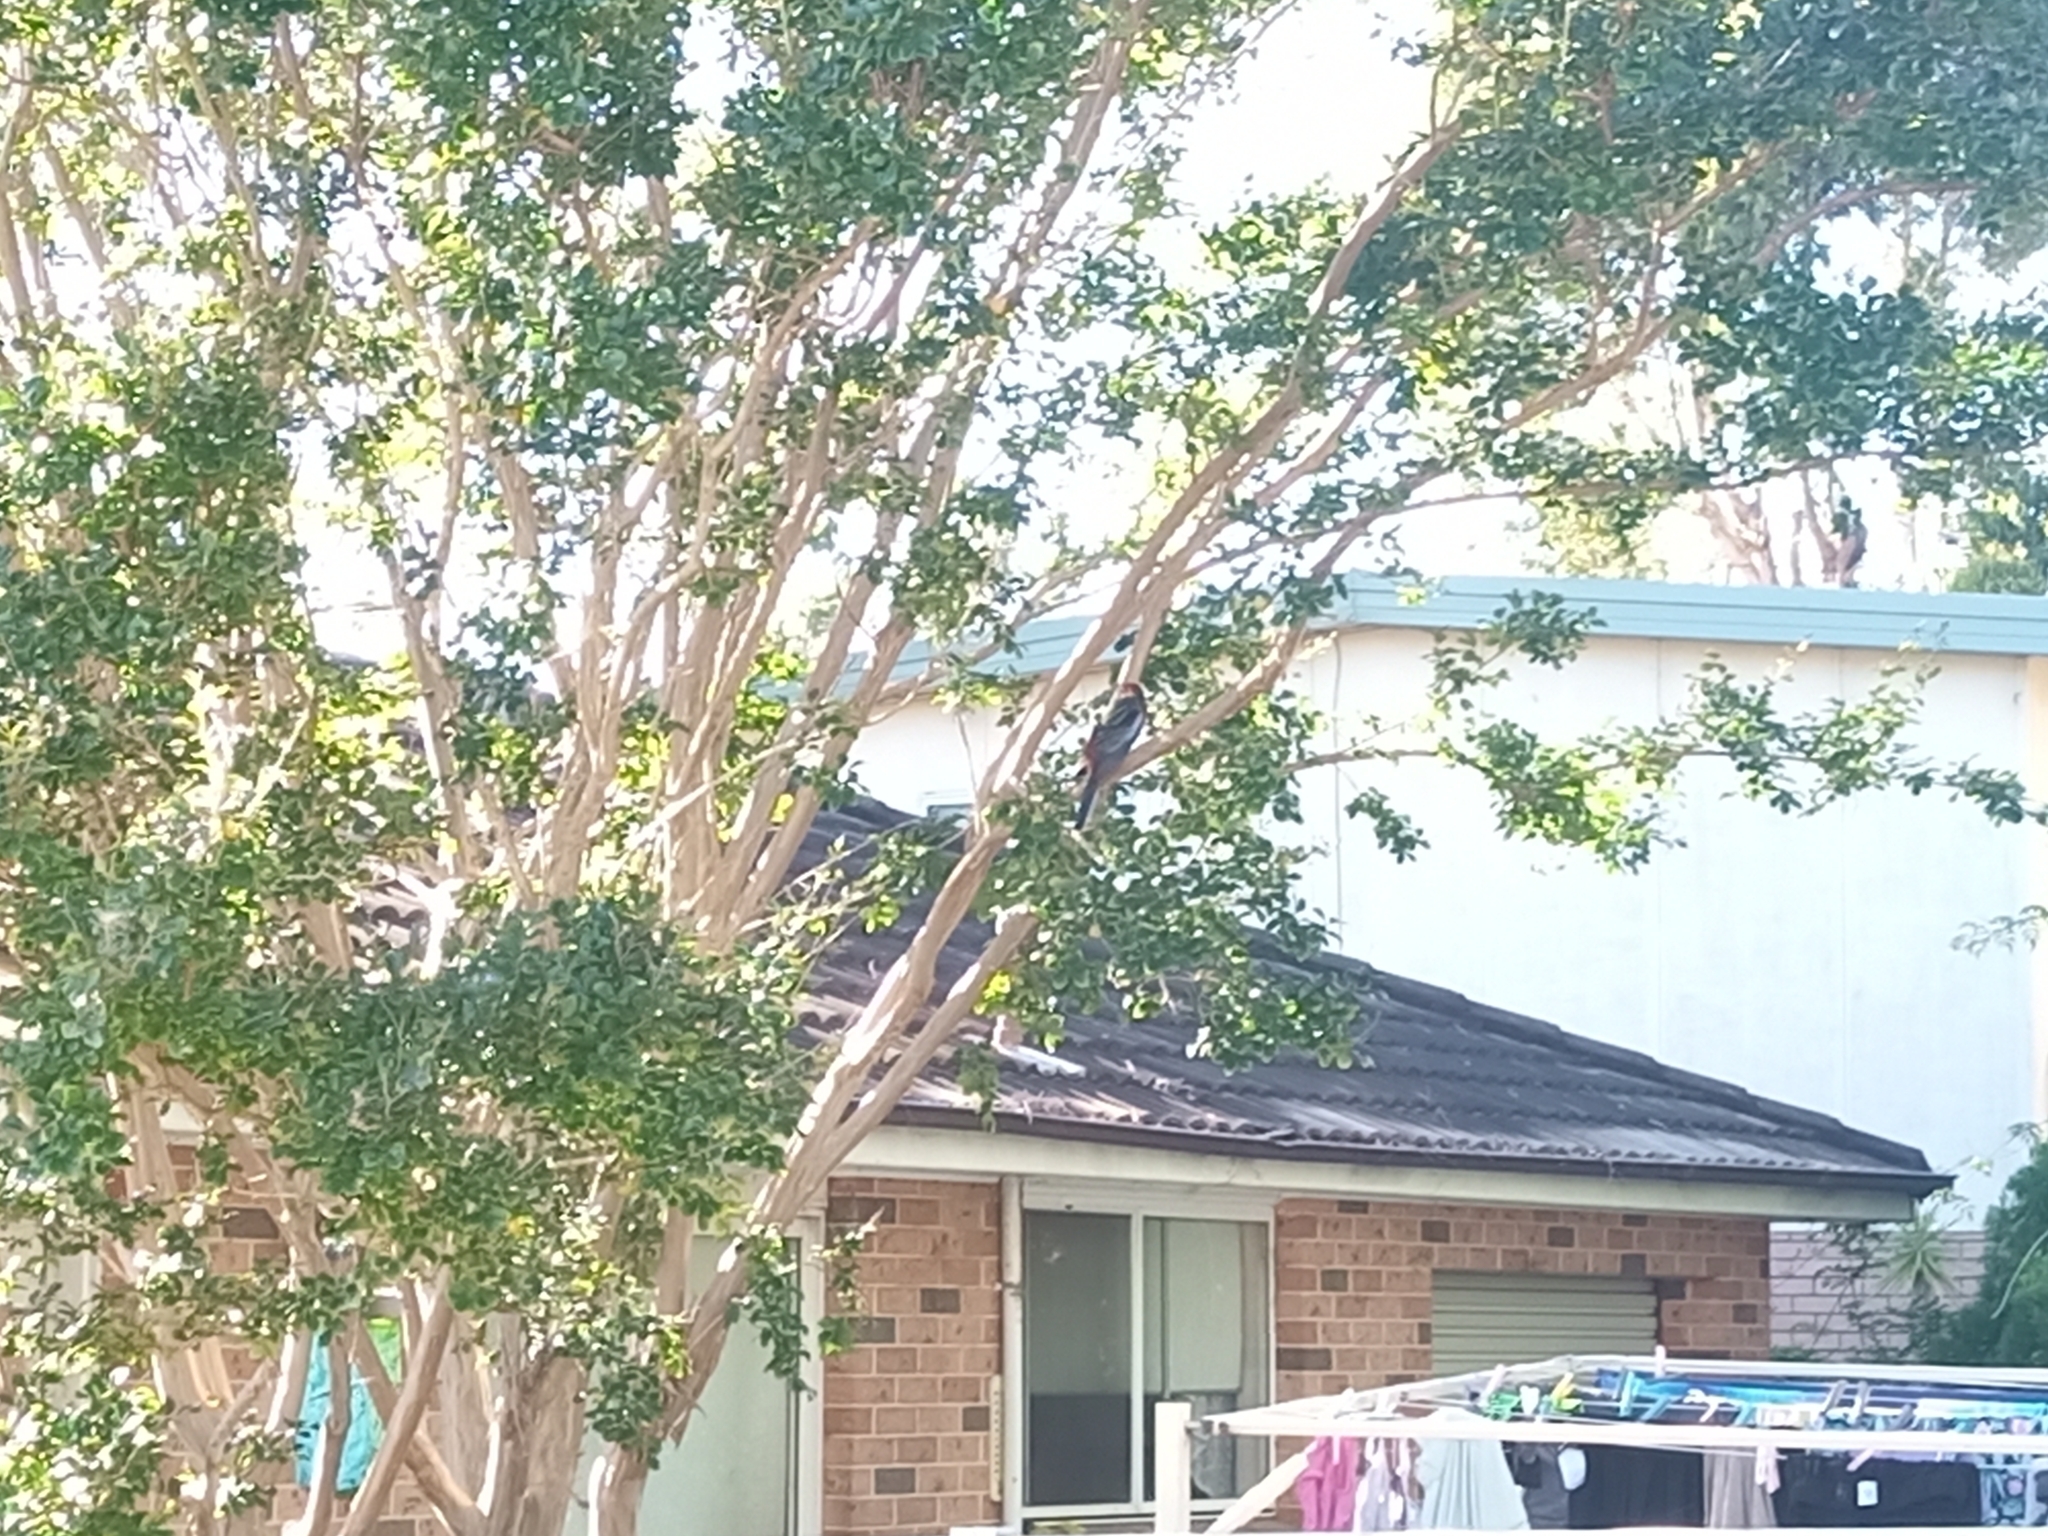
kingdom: Animalia
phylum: Chordata
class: Aves
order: Psittaciformes
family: Psittacidae
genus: Platycercus
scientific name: Platycercus elegans
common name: Crimson rosella
